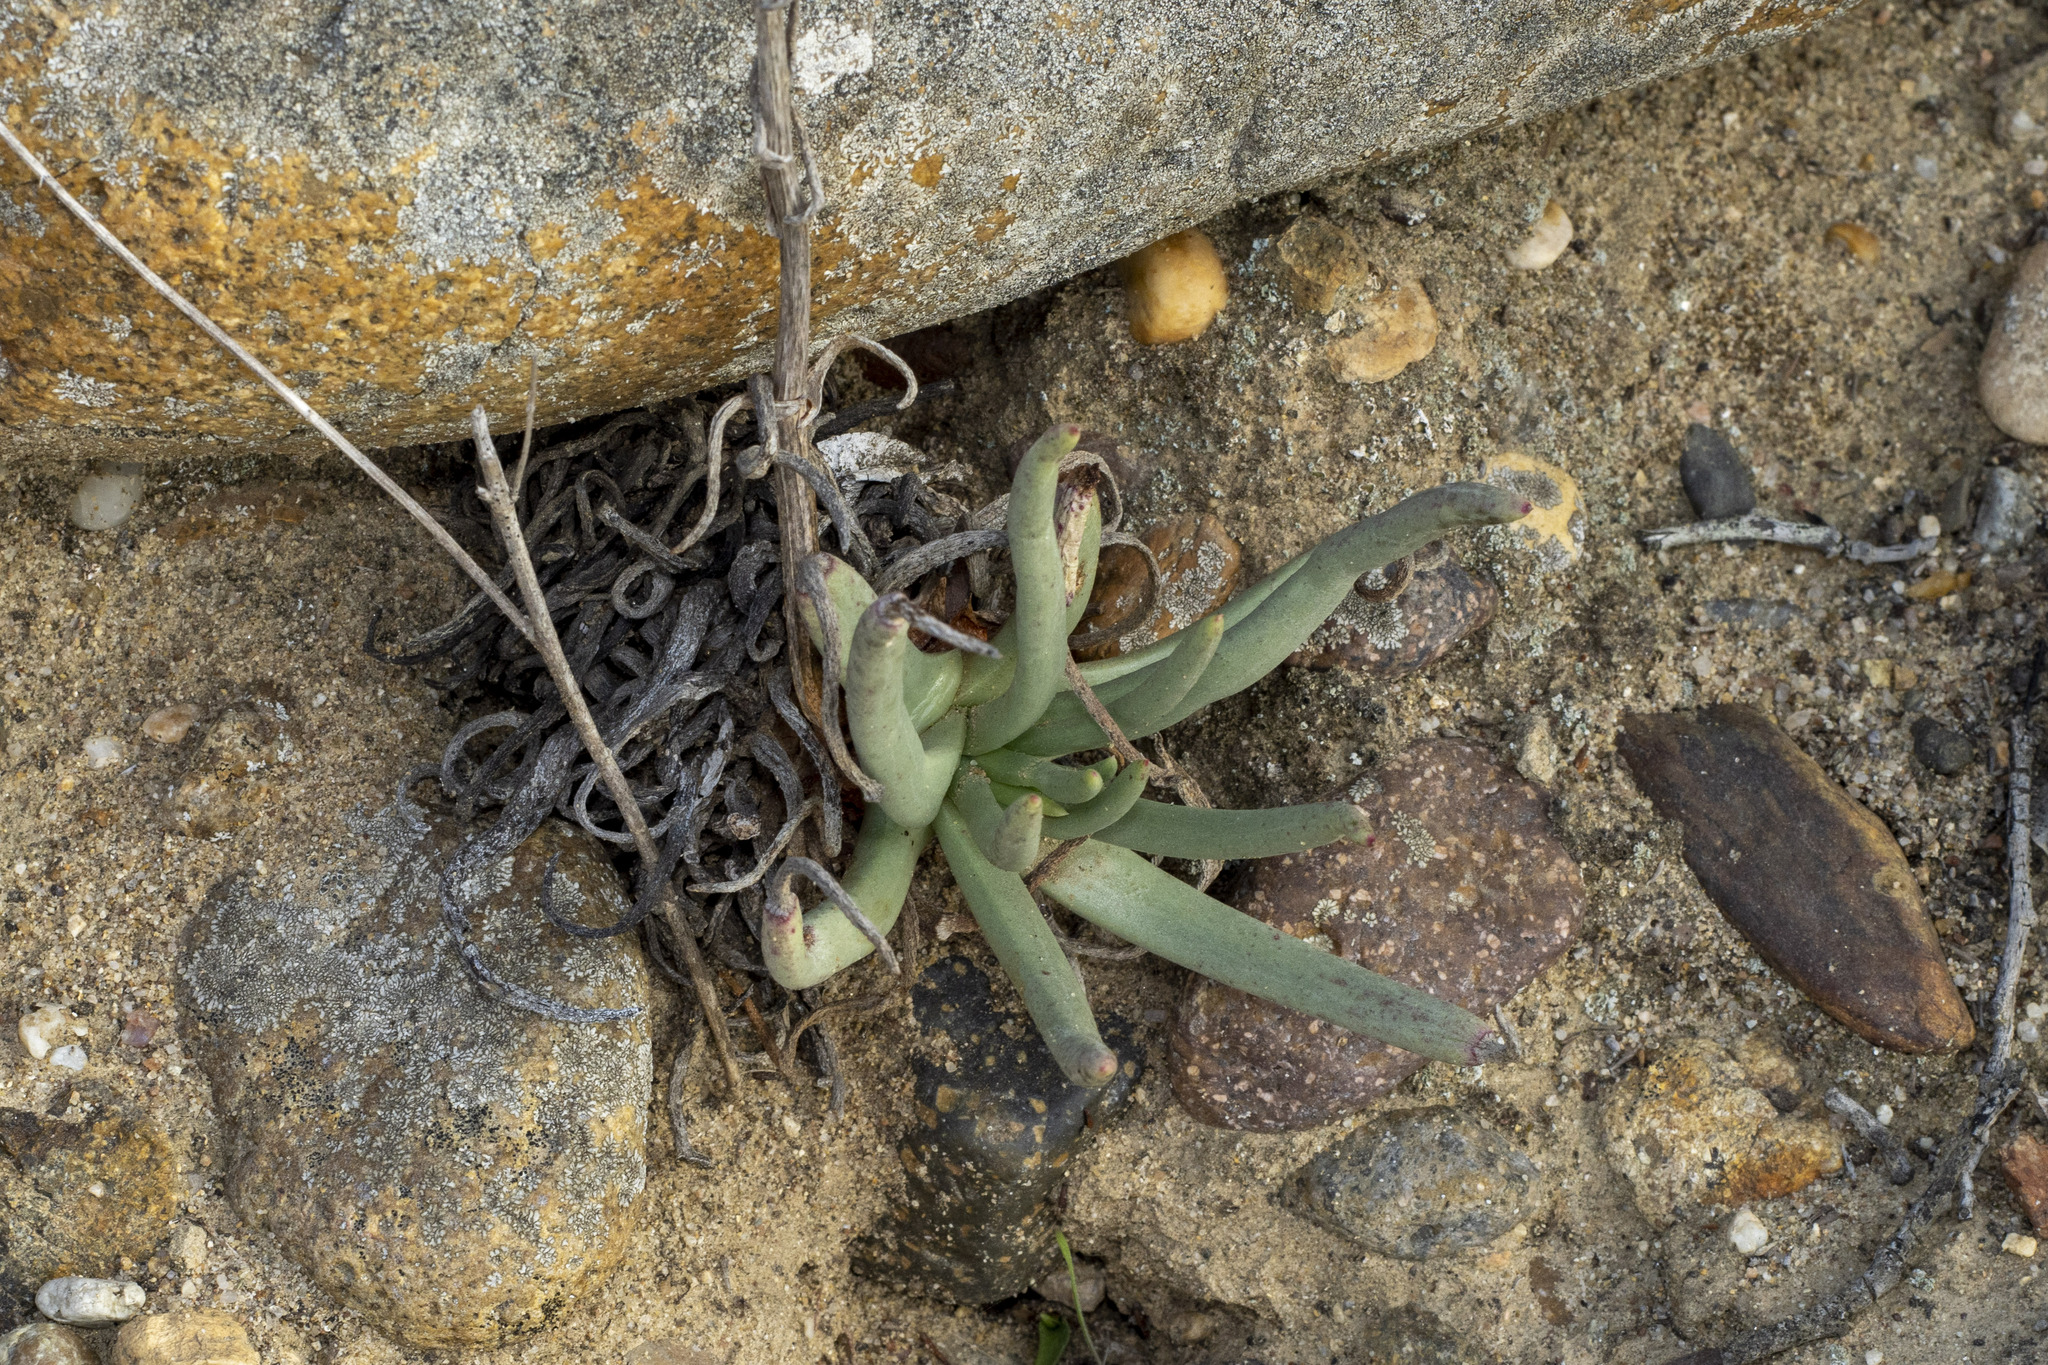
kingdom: Plantae
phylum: Tracheophyta
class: Magnoliopsida
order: Saxifragales
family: Crassulaceae
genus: Dudleya
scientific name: Dudleya edulis
